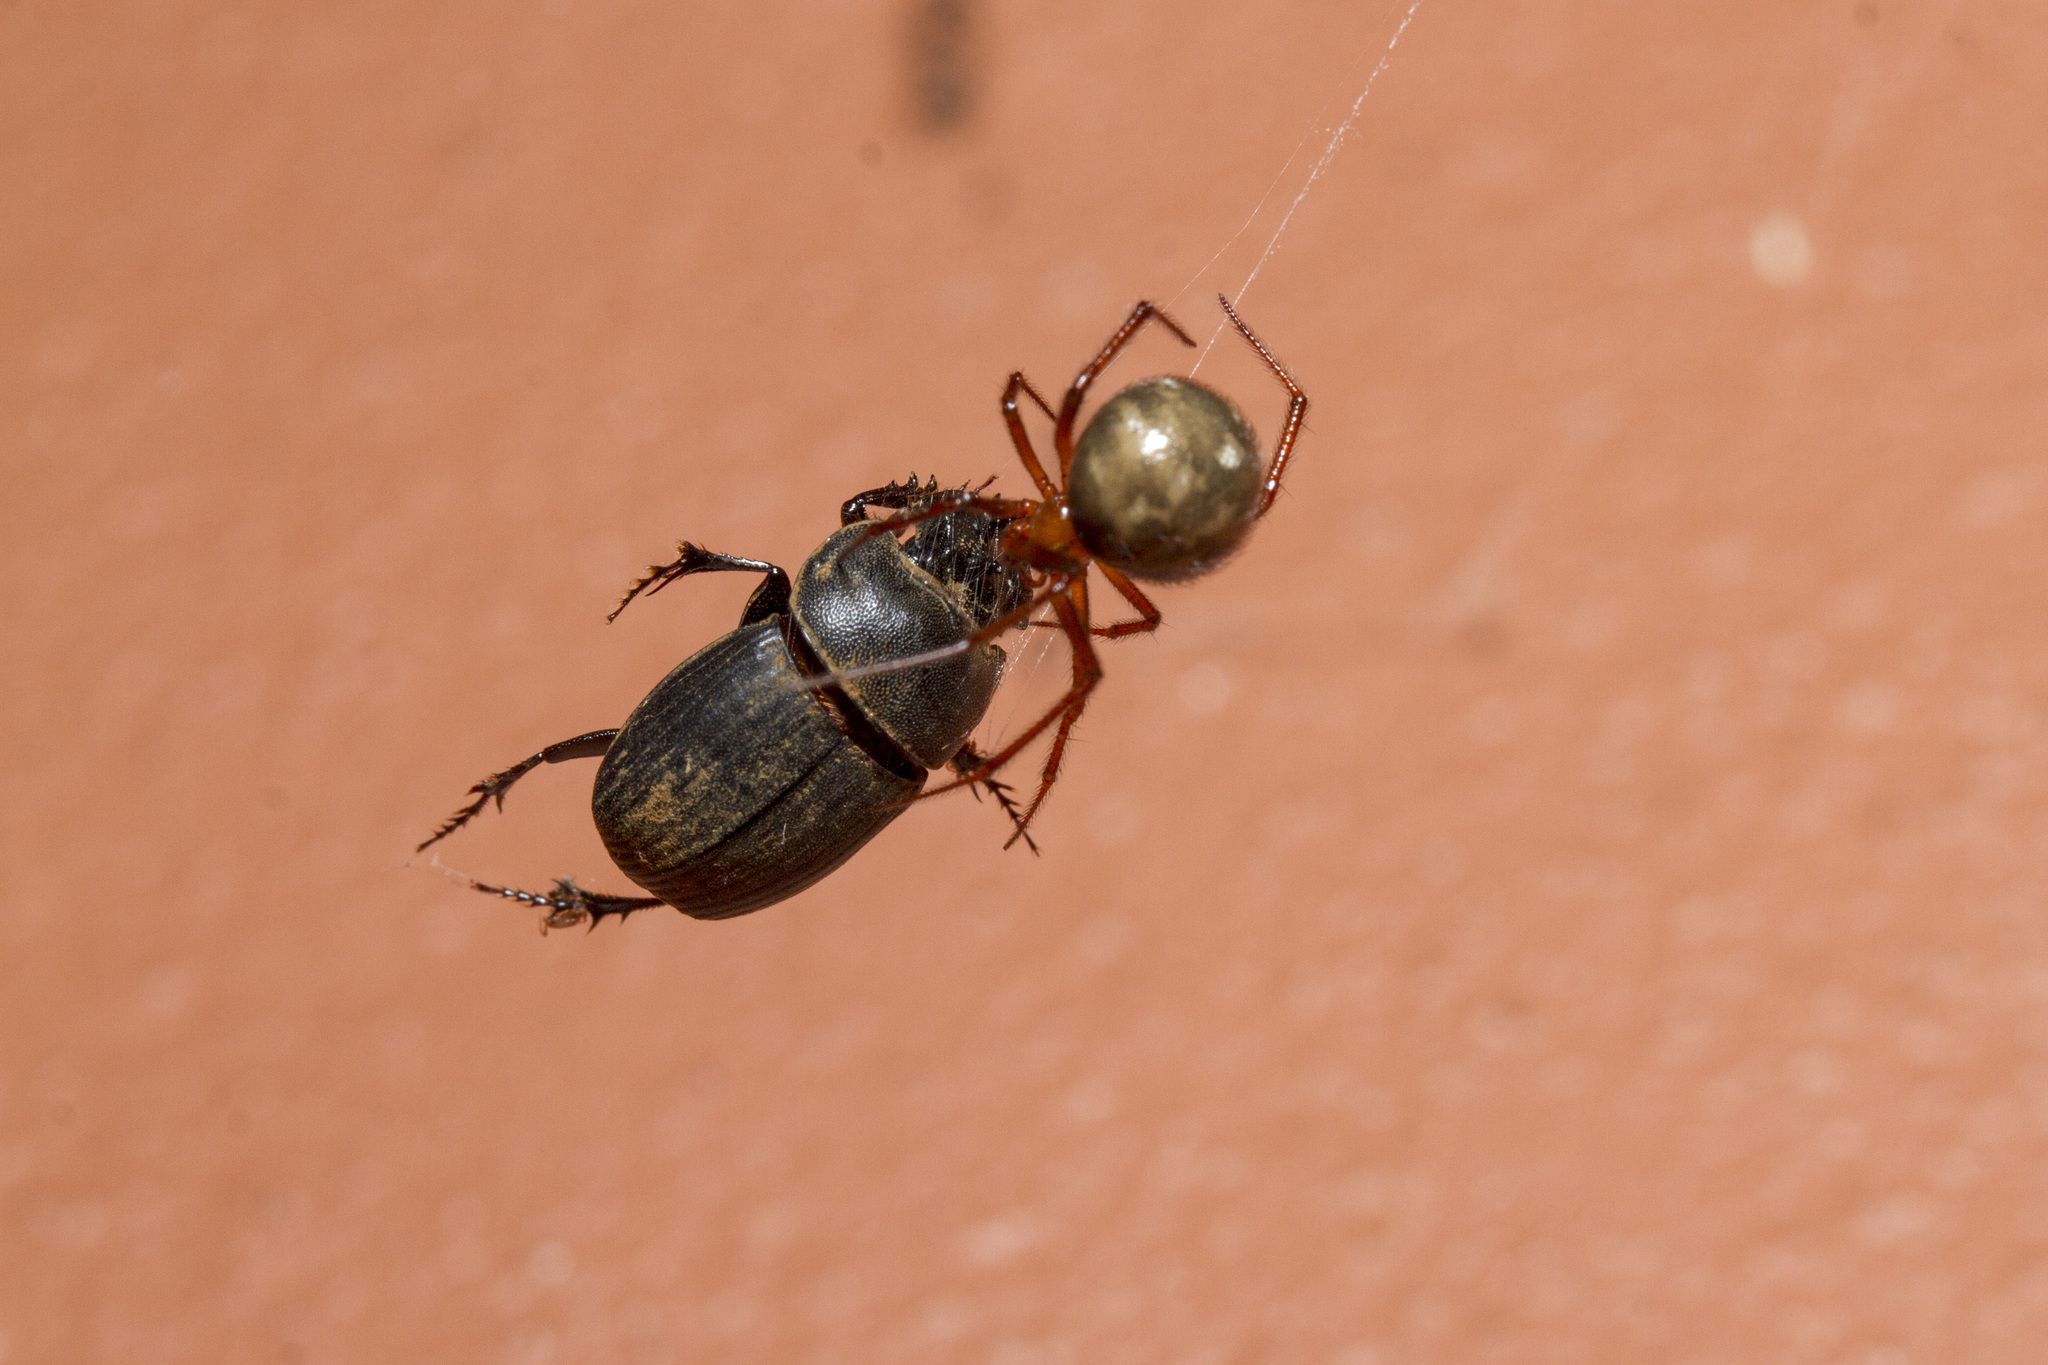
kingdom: Animalia
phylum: Arthropoda
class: Arachnida
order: Araneae
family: Theridiidae
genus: Nesticodes
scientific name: Nesticodes rufipes
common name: Cobweb spiders
